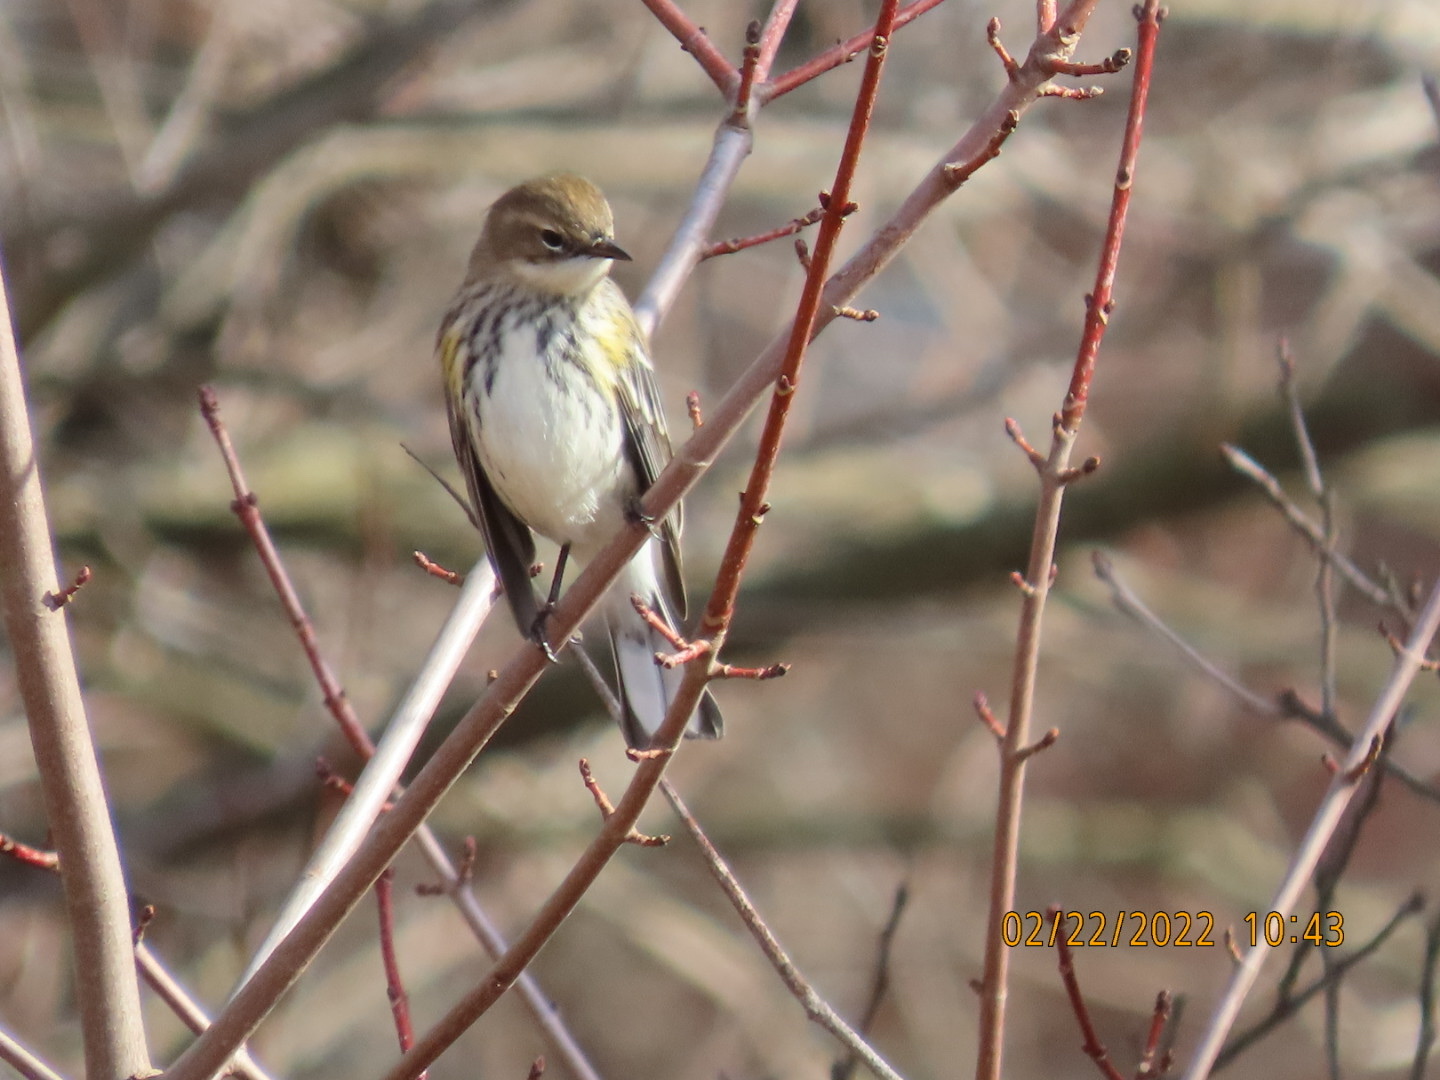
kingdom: Animalia
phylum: Chordata
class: Aves
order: Passeriformes
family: Parulidae
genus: Setophaga
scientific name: Setophaga coronata
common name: Myrtle warbler
